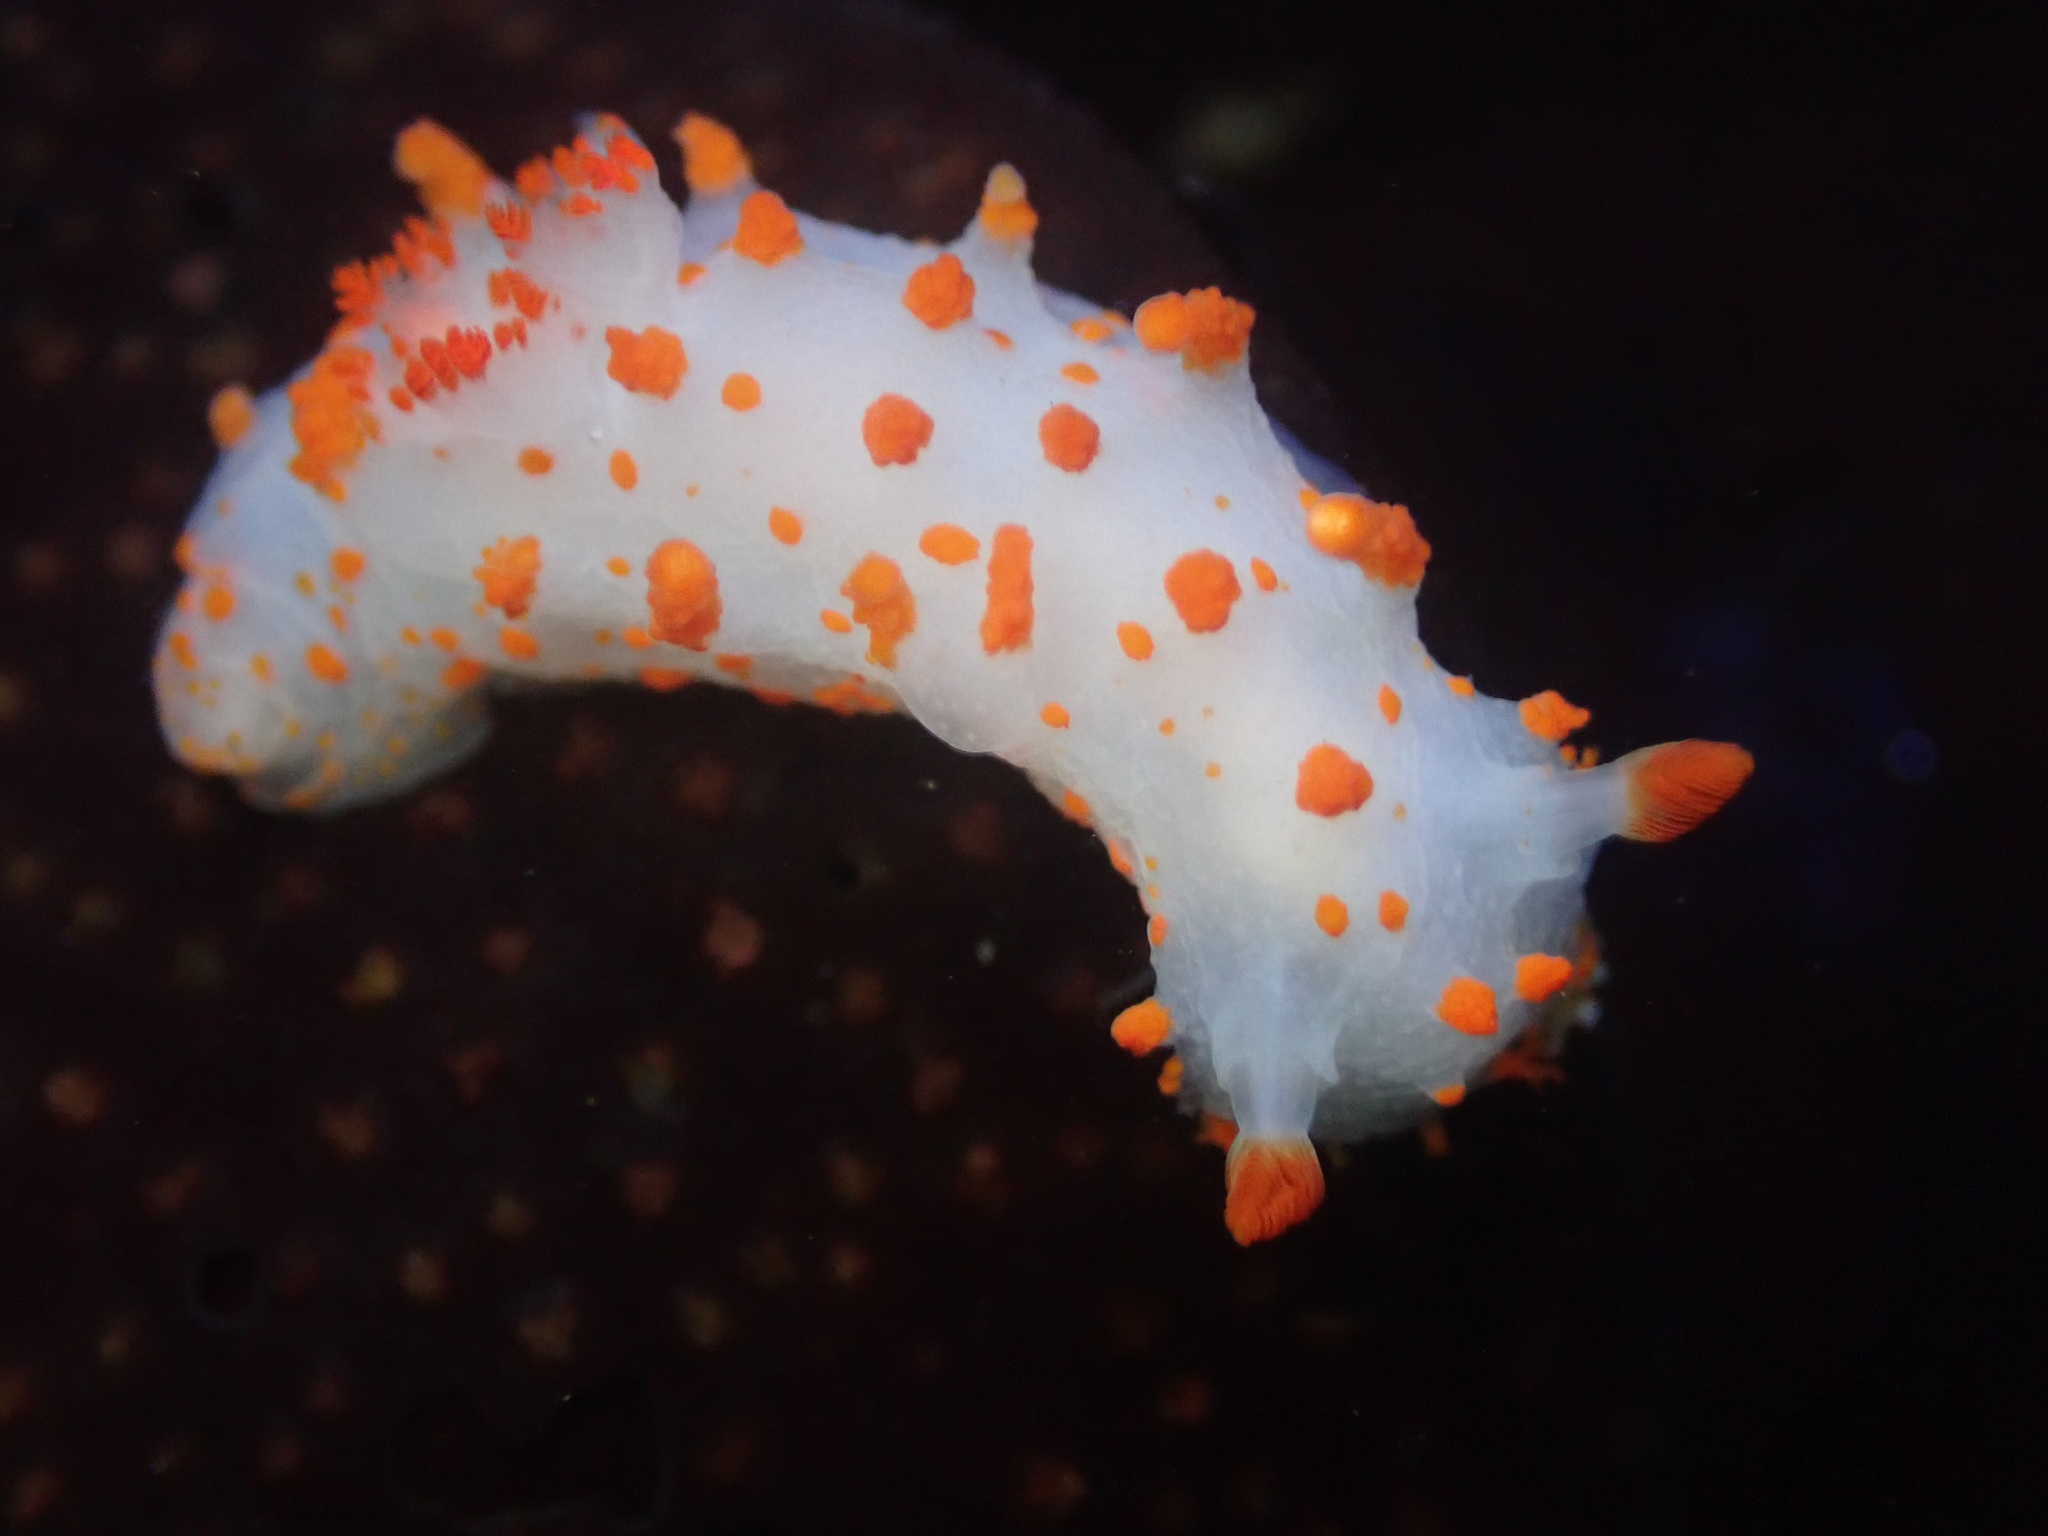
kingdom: Animalia
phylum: Mollusca
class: Gastropoda
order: Nudibranchia
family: Polyceridae
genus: Triopha
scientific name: Triopha catalinae
